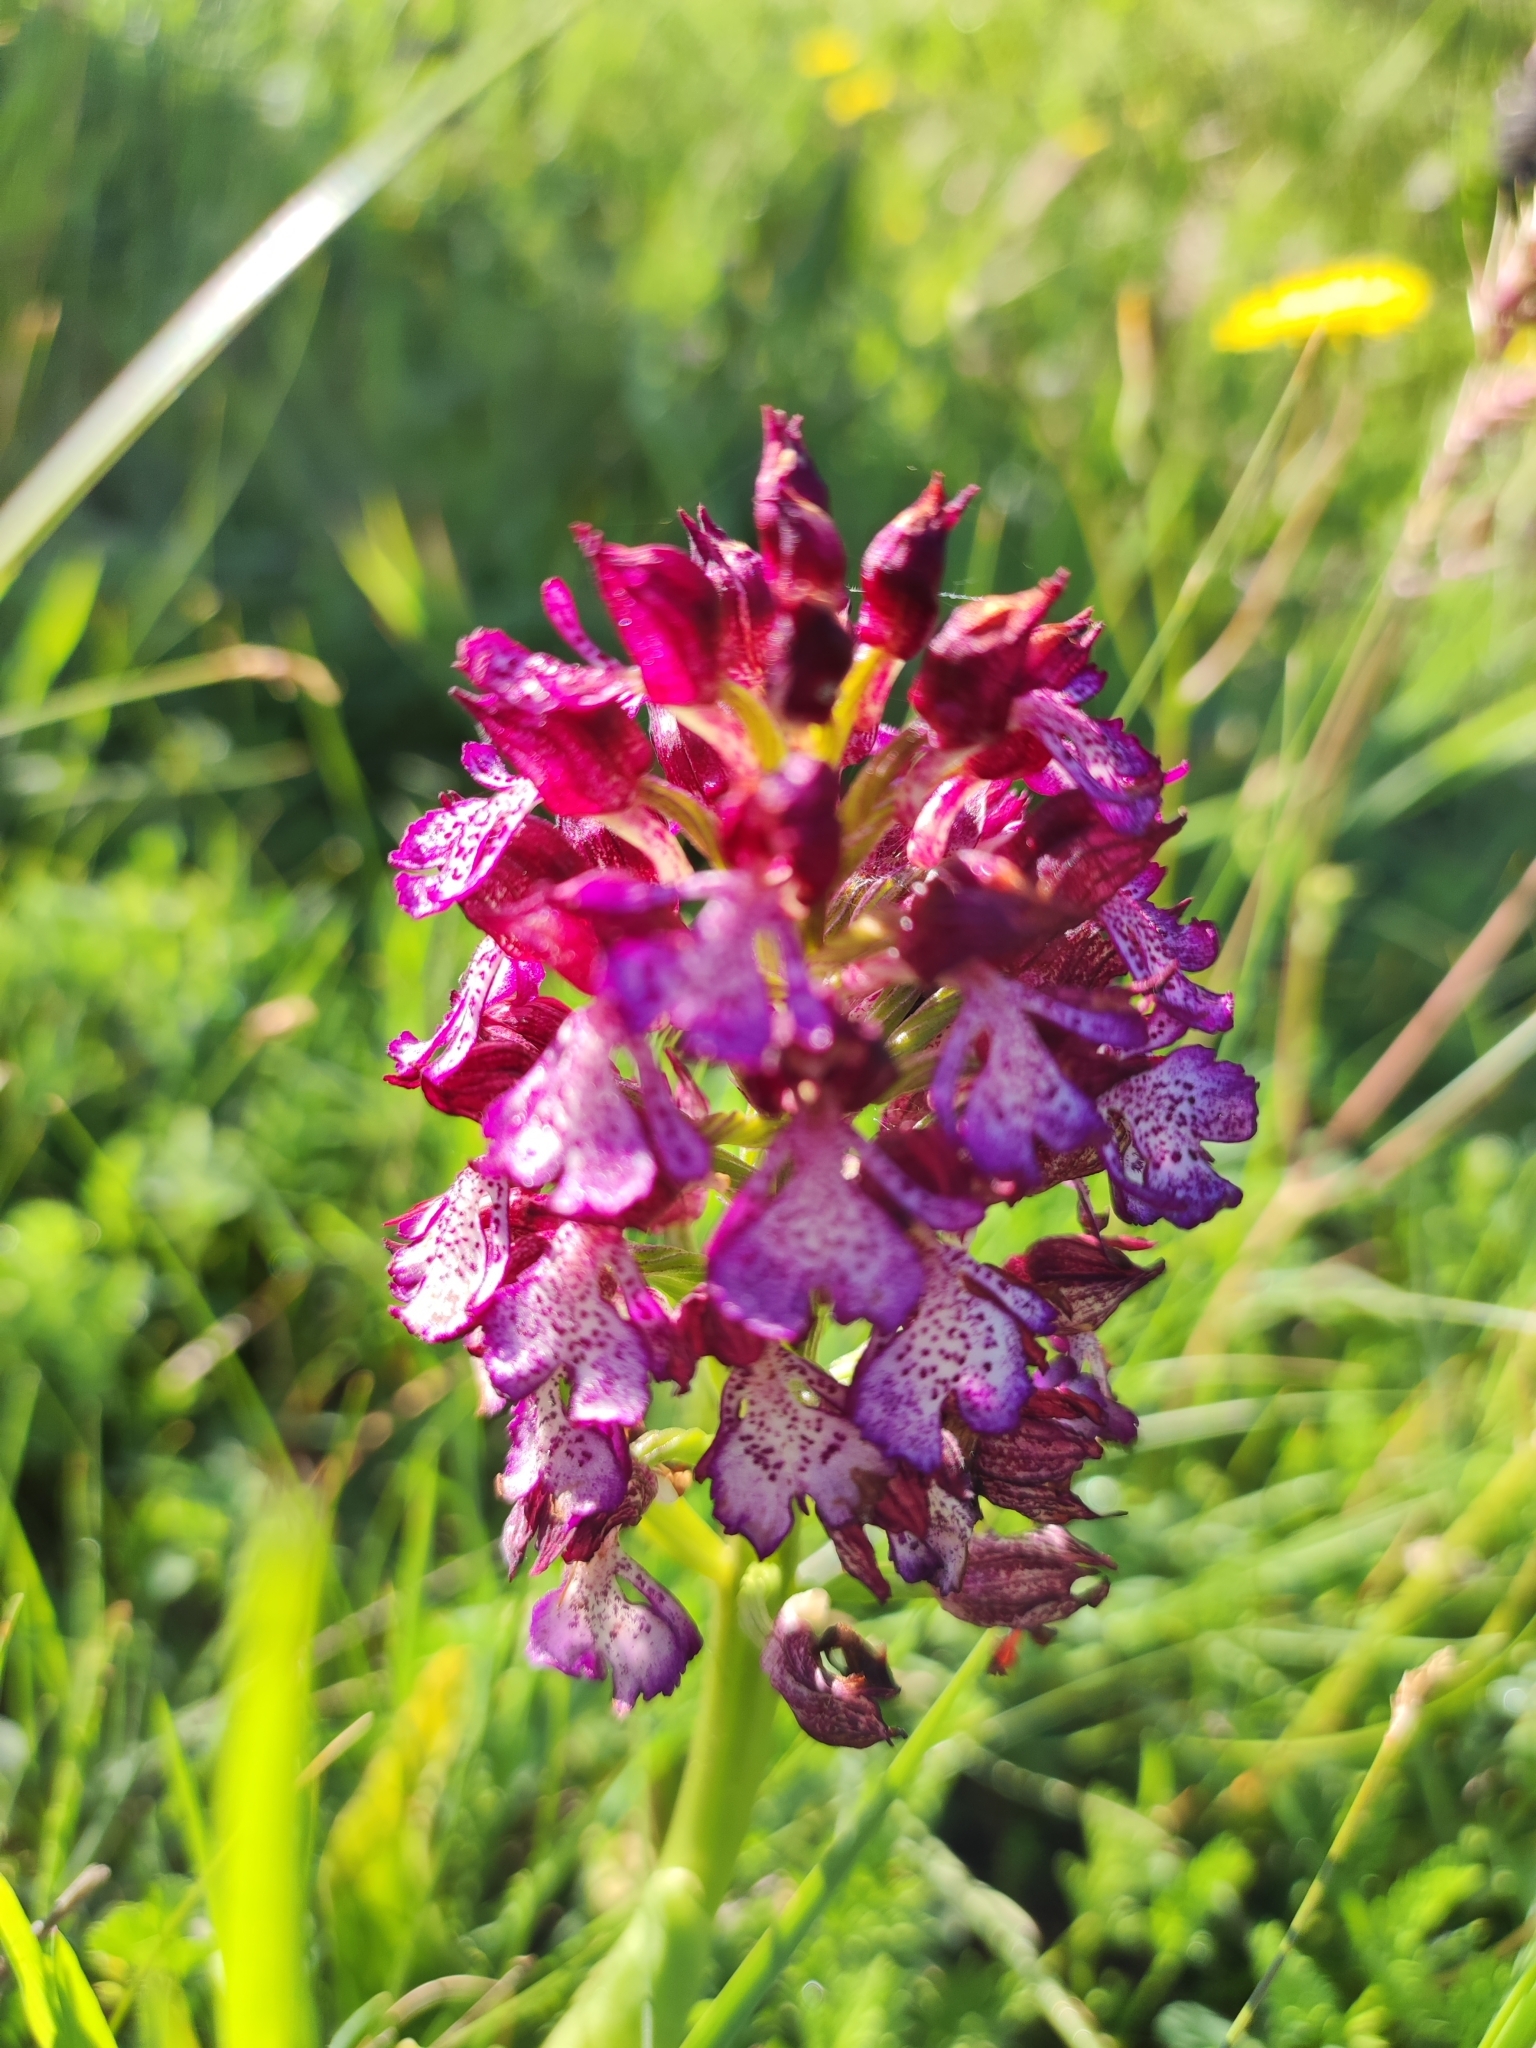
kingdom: Plantae
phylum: Tracheophyta
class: Liliopsida
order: Asparagales
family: Orchidaceae
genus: Orchis
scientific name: Orchis purpurea
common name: Lady orchid
